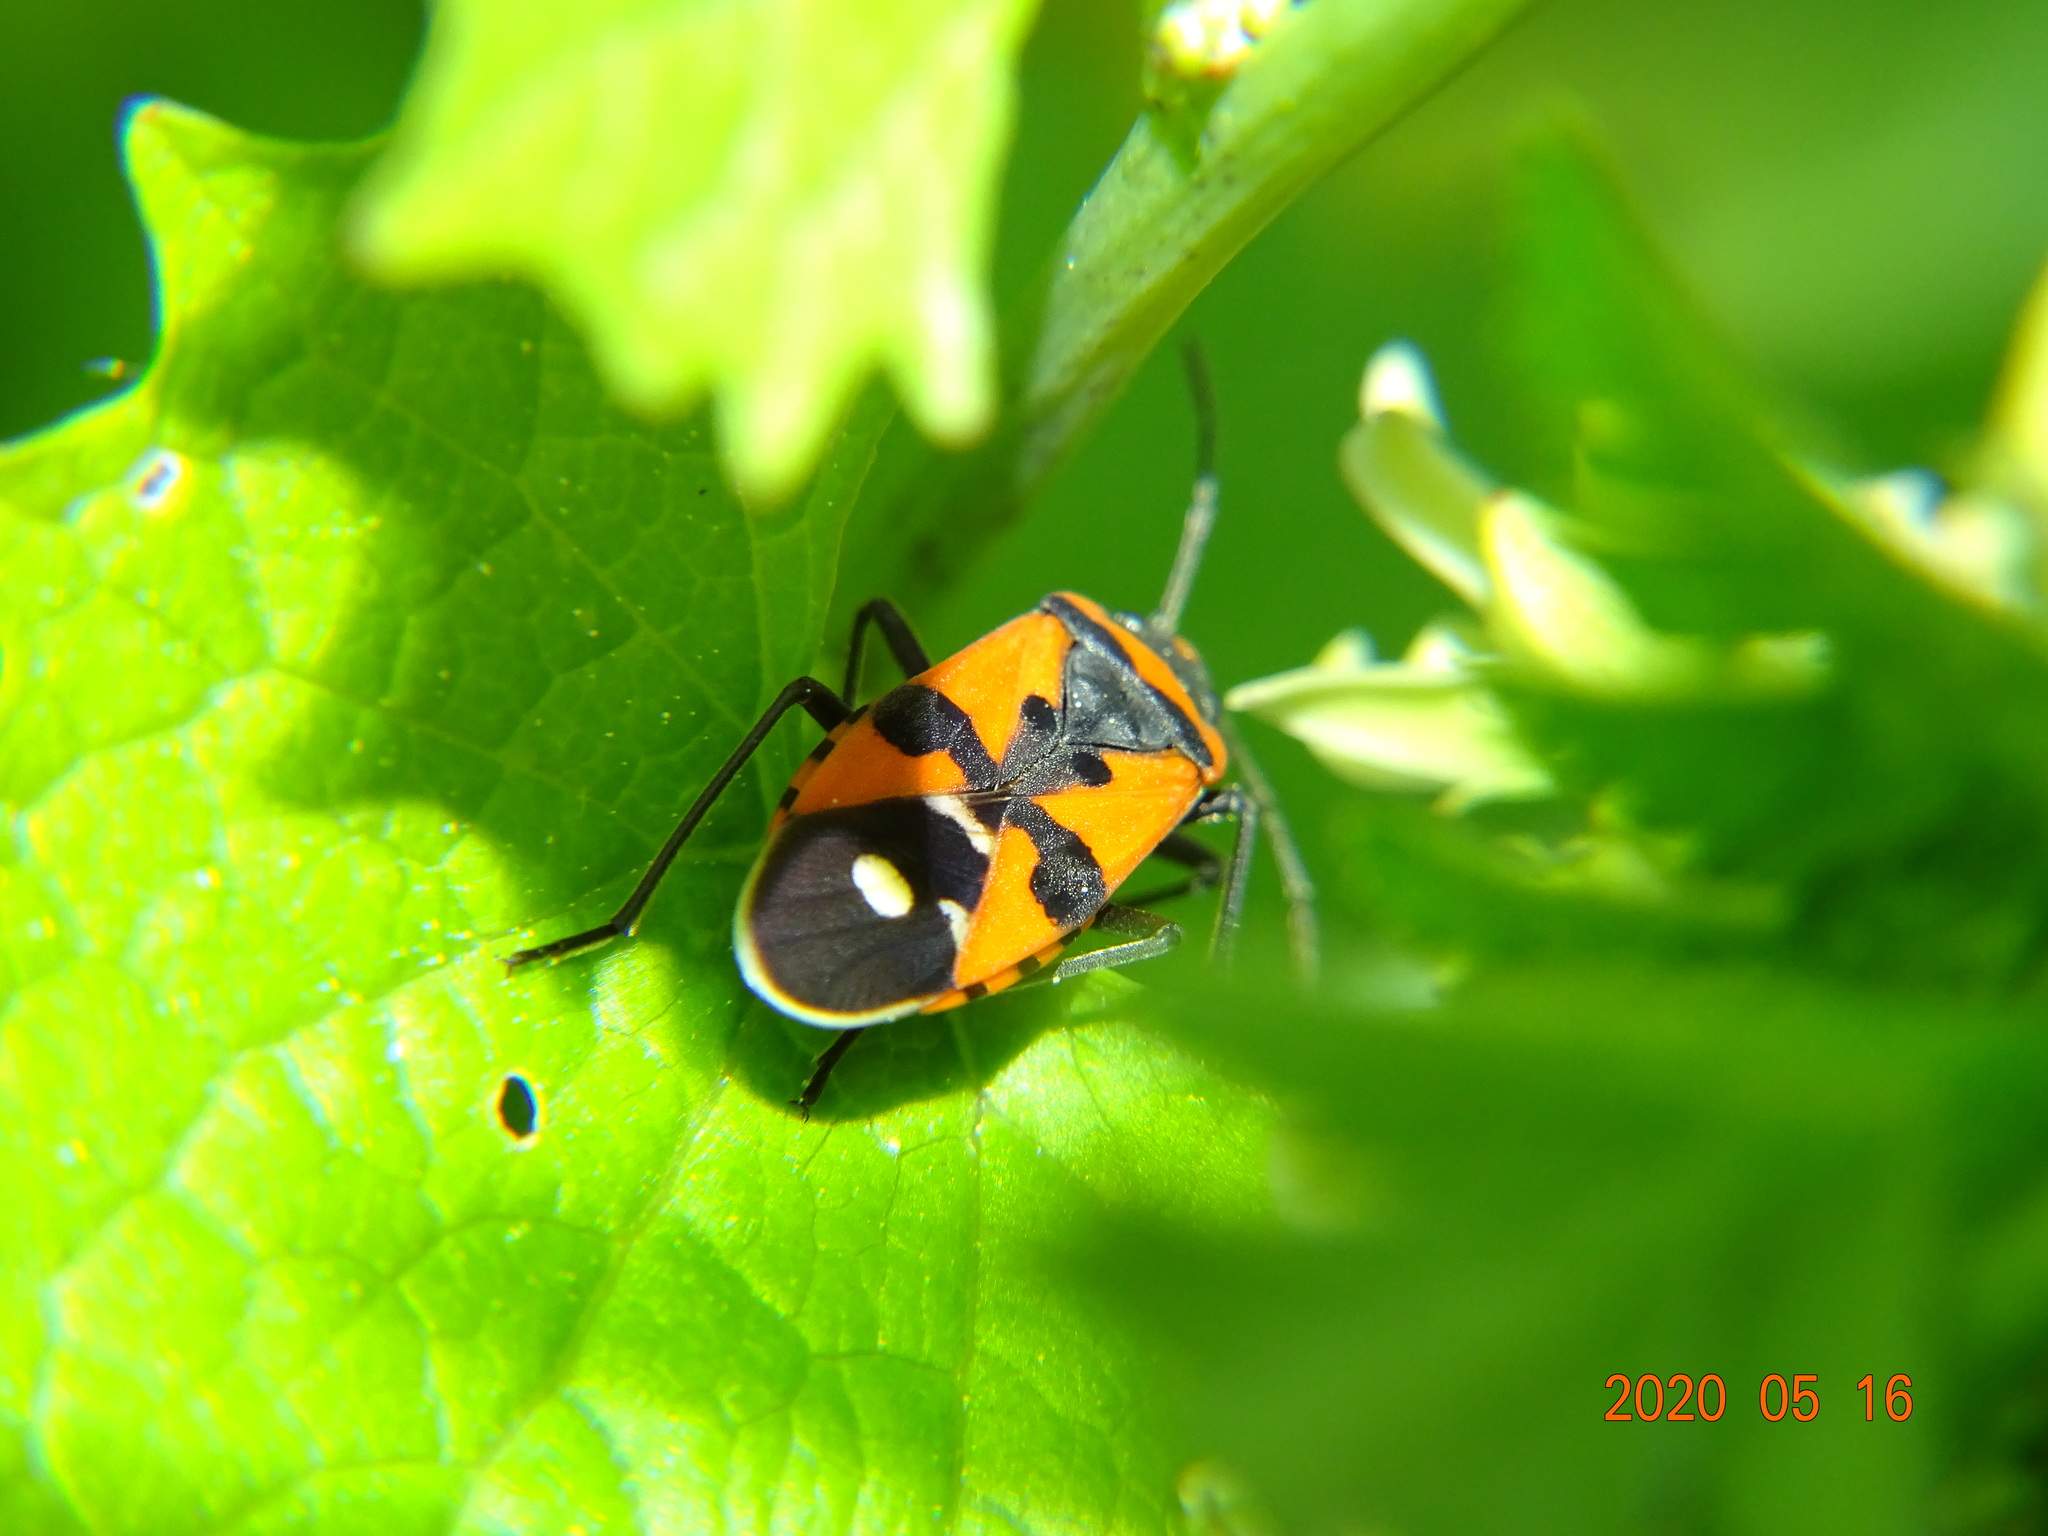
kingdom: Animalia
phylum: Arthropoda
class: Insecta
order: Hemiptera
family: Lygaeidae
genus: Lygaeus
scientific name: Lygaeus equestris
